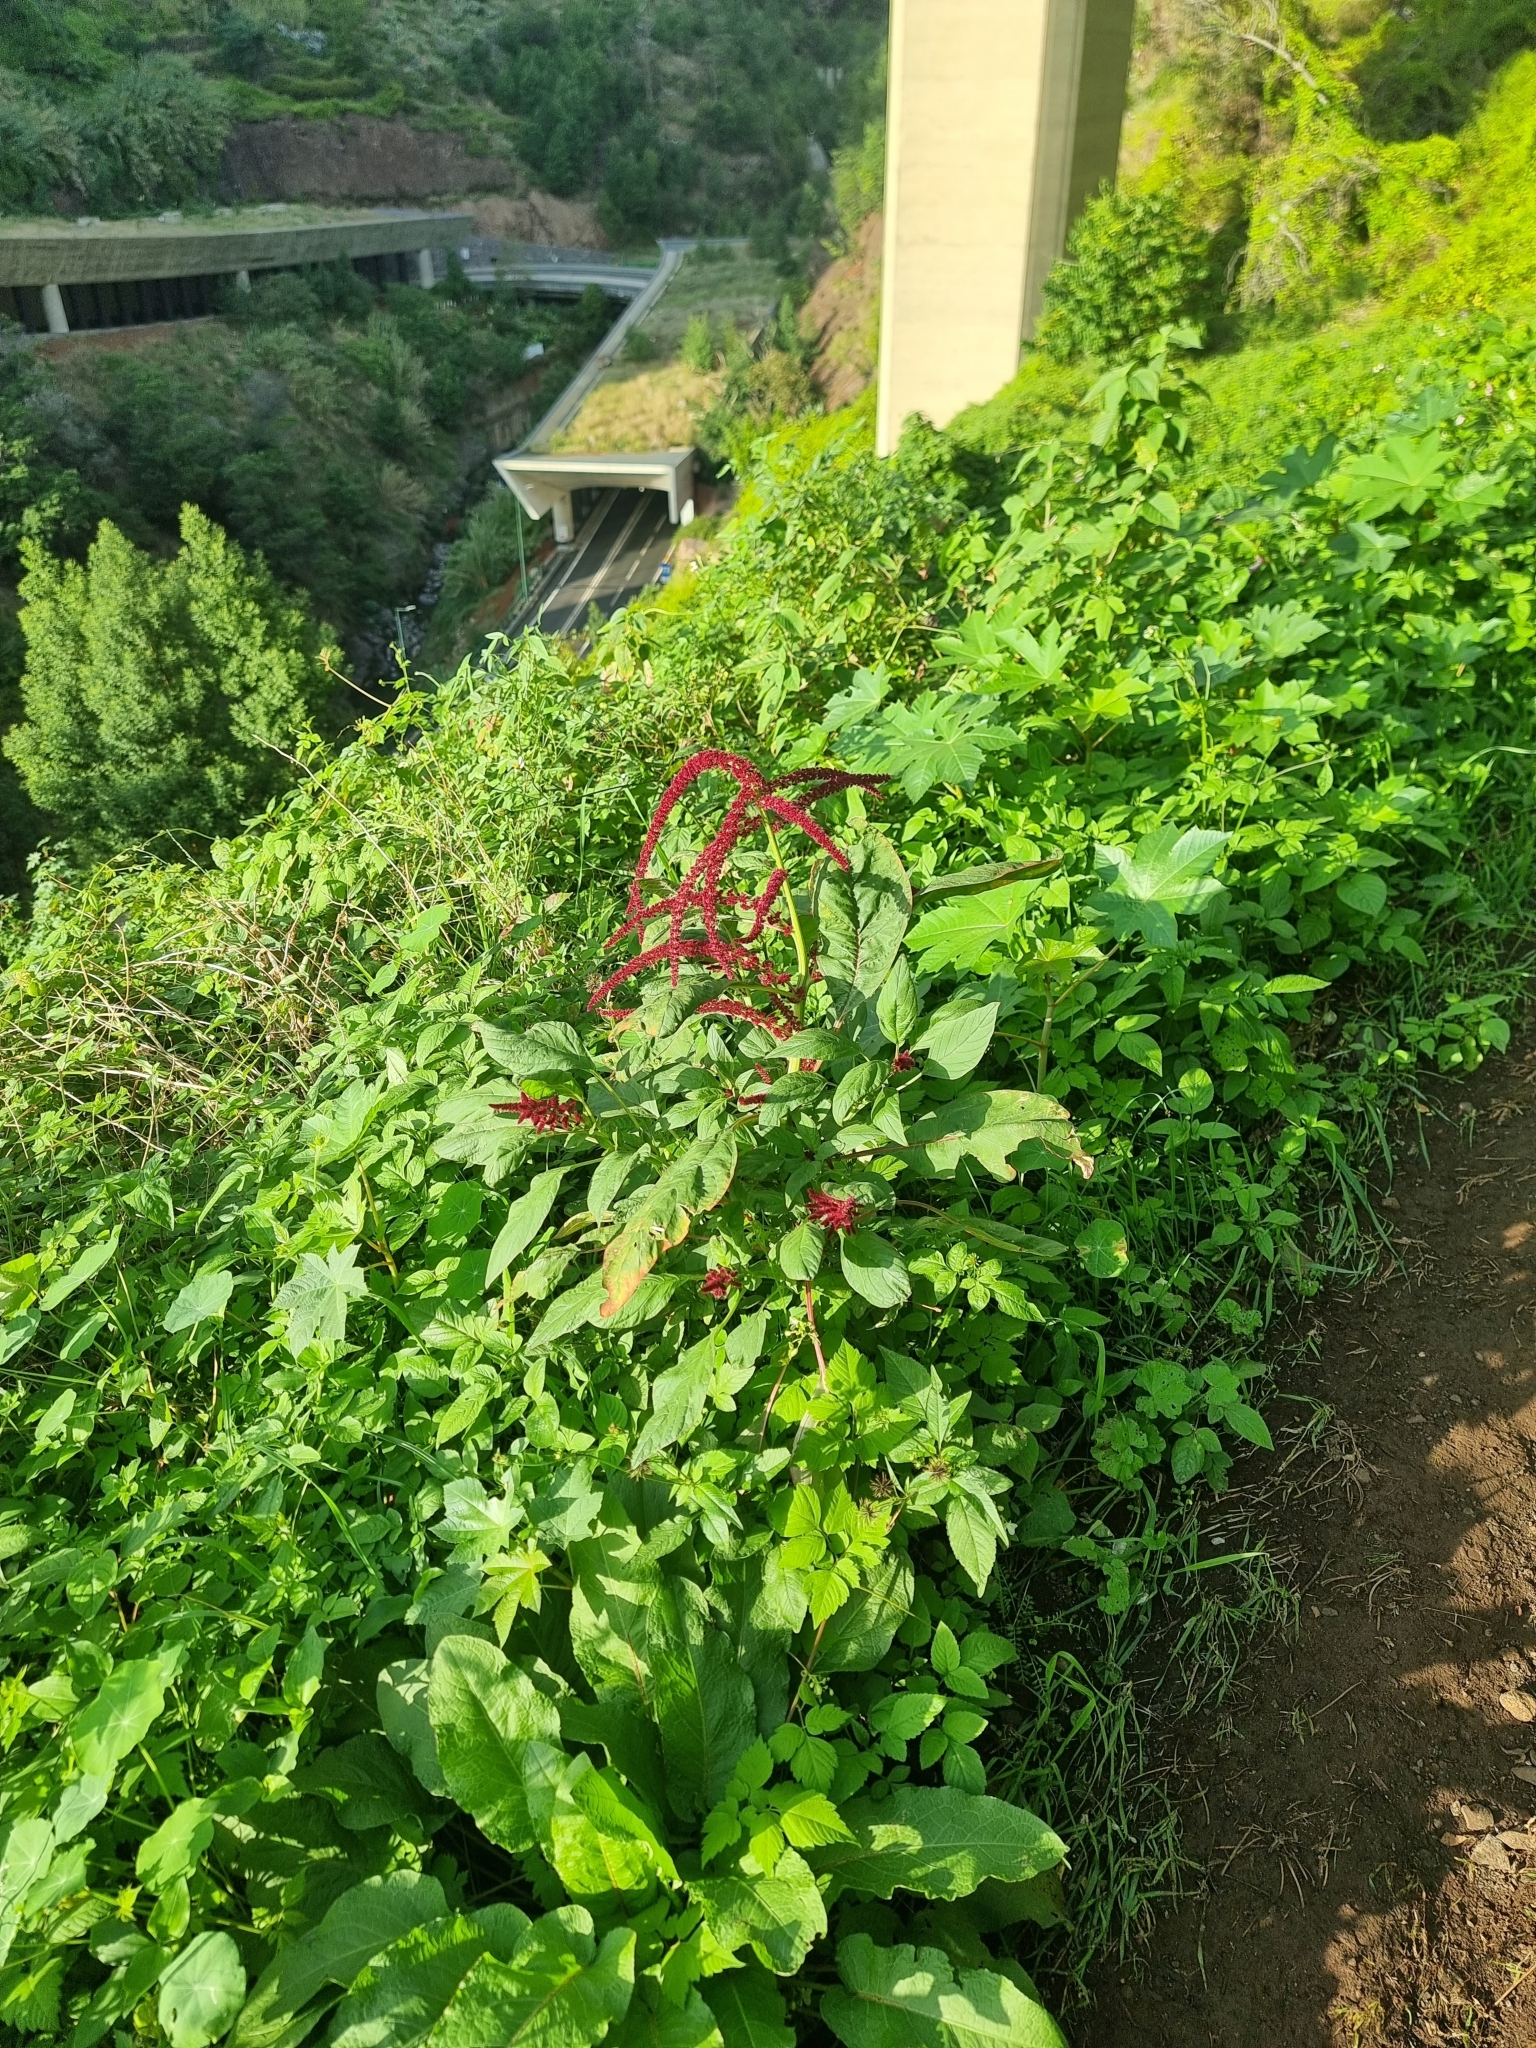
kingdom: Plantae
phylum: Tracheophyta
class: Magnoliopsida
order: Caryophyllales
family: Amaranthaceae
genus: Amaranthus
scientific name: Amaranthus caudatus
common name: Love-lies-bleeding
